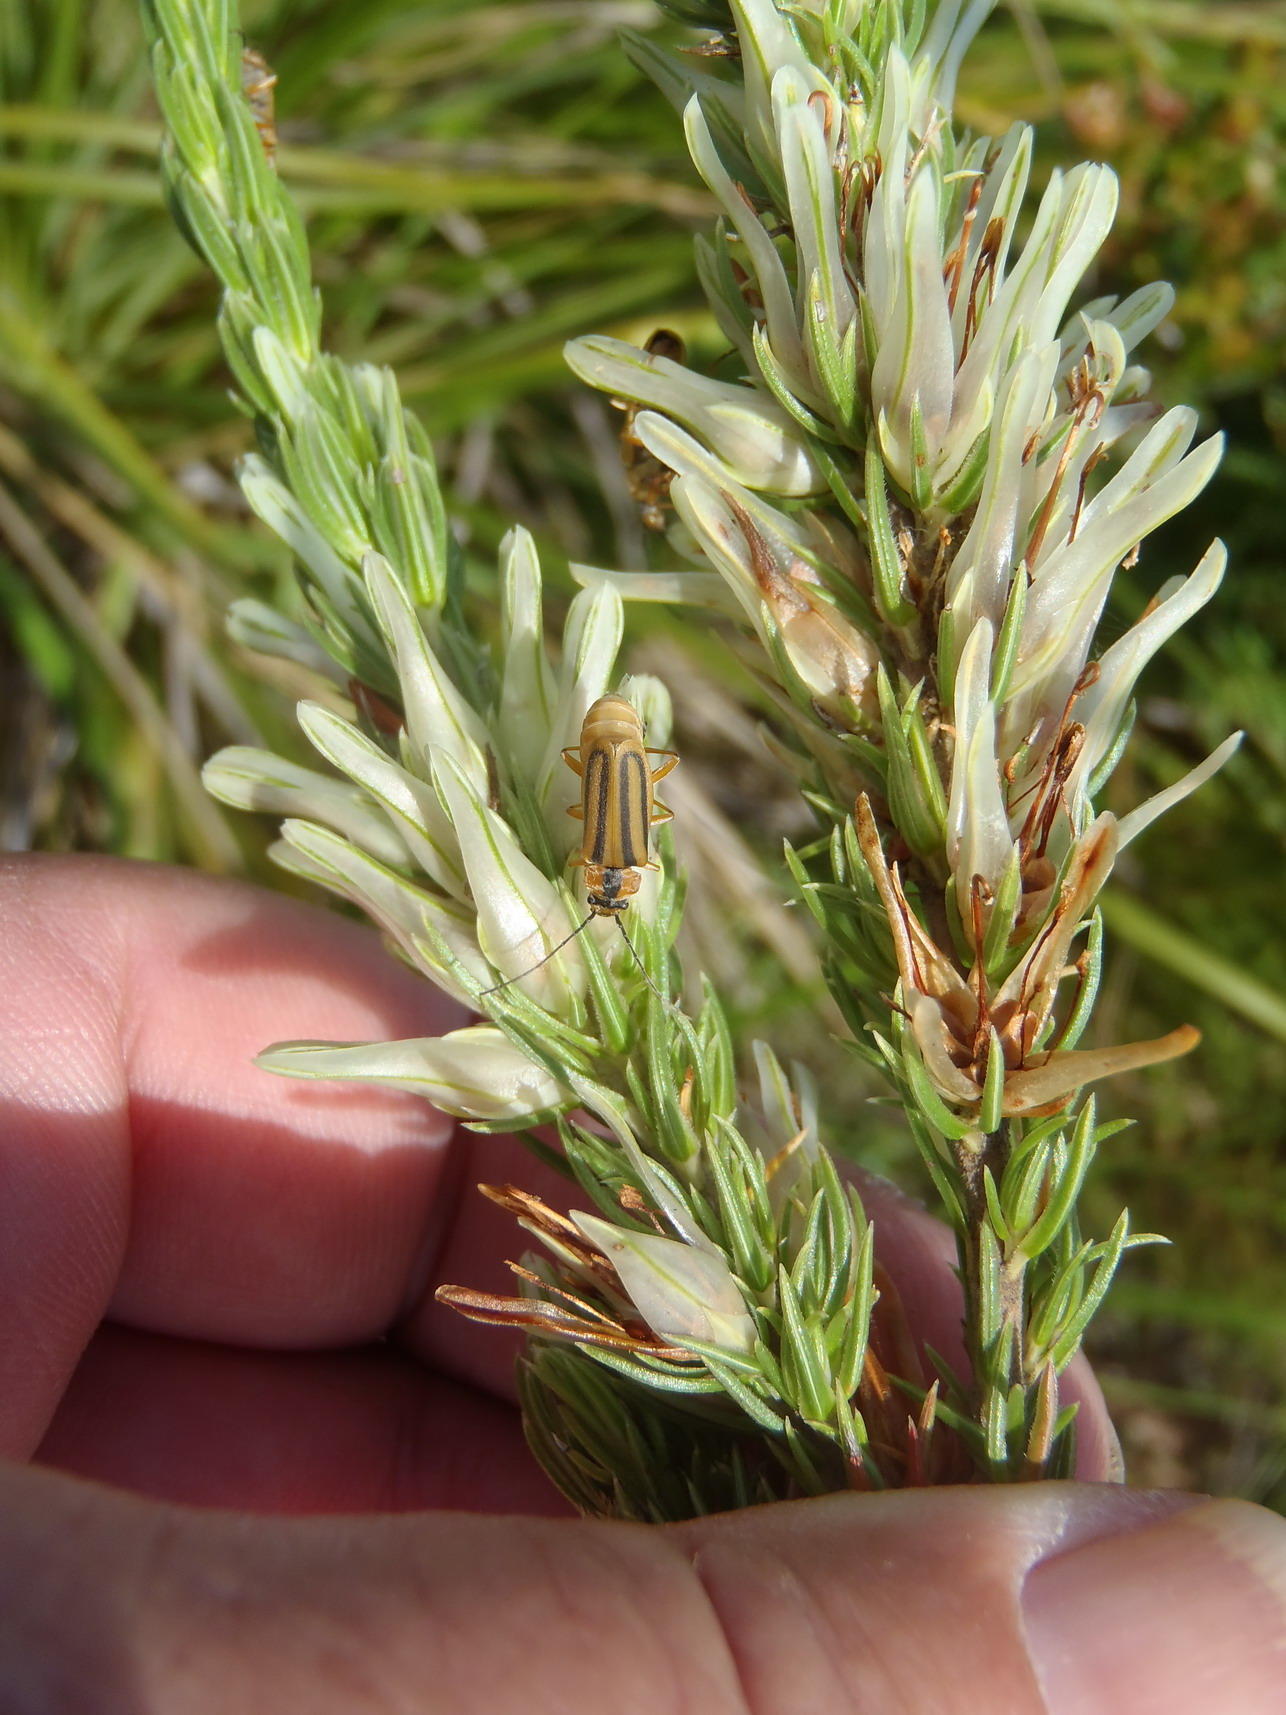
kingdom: Plantae
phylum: Tracheophyta
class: Magnoliopsida
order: Ericales
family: Ericaceae
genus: Erica
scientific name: Erica nabea
